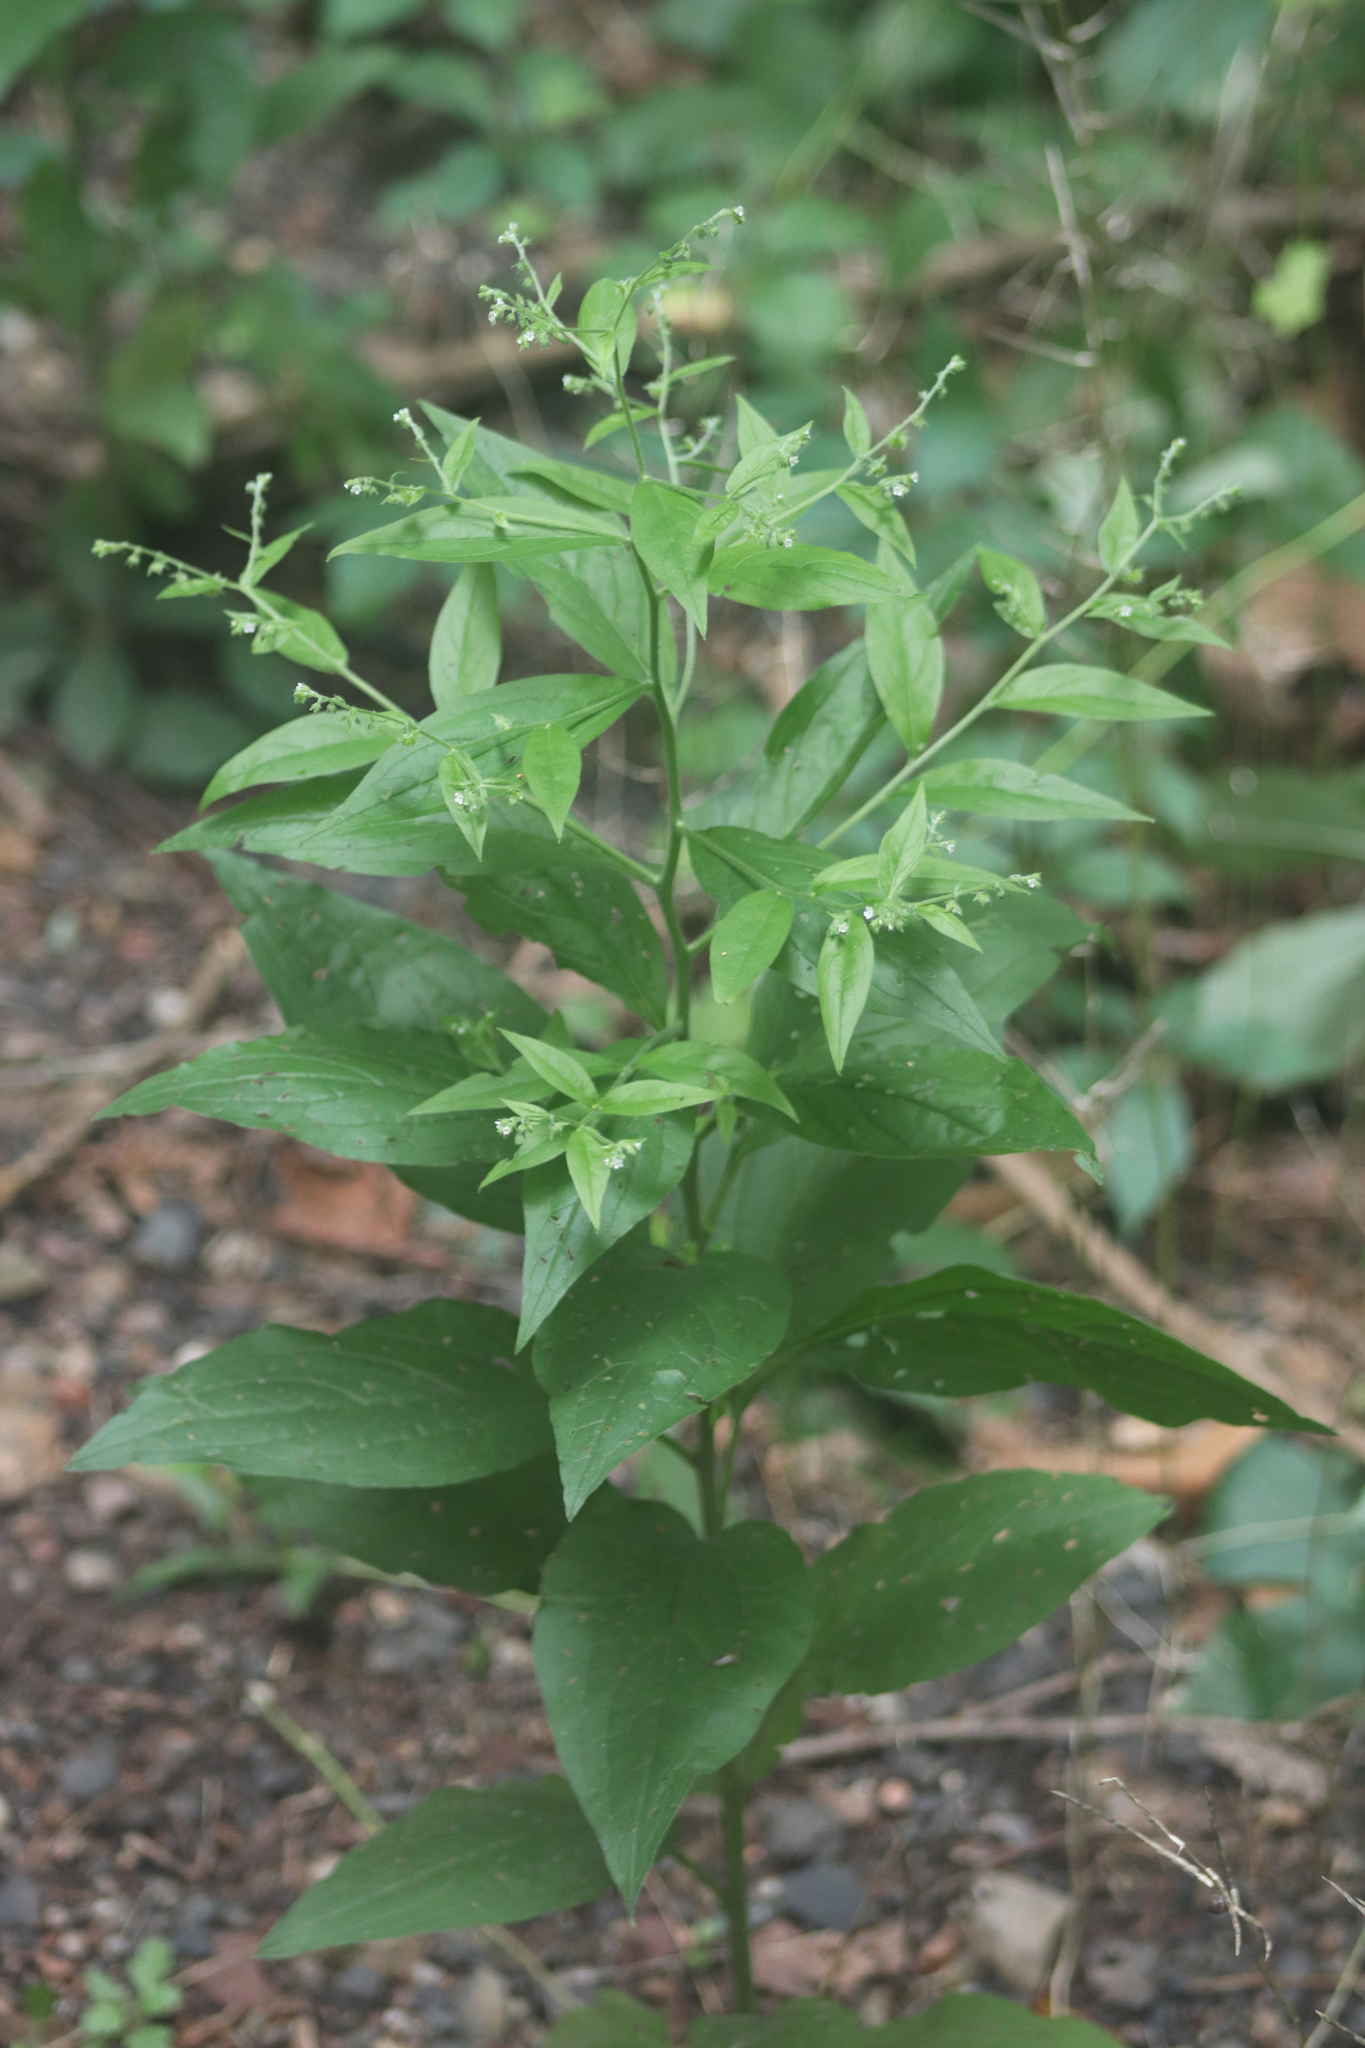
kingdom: Plantae
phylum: Tracheophyta
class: Magnoliopsida
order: Boraginales
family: Boraginaceae
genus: Hackelia
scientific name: Hackelia virginiana
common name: Beggar's-lice
